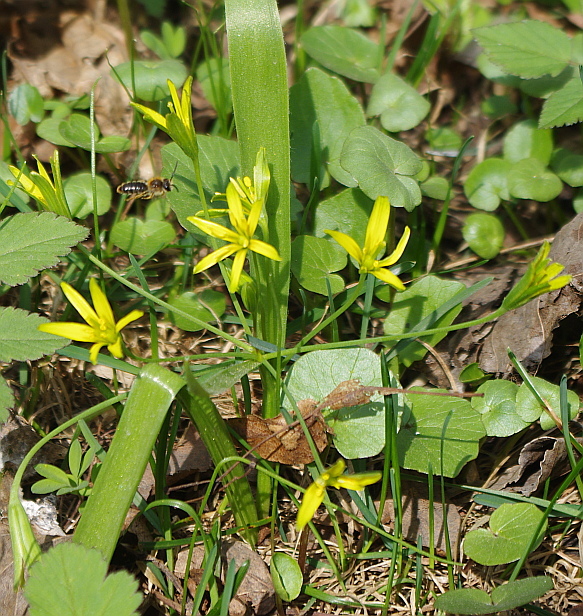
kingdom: Plantae
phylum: Tracheophyta
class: Liliopsida
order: Liliales
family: Liliaceae
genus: Gagea
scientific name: Gagea lutea
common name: Yellow star-of-bethlehem
